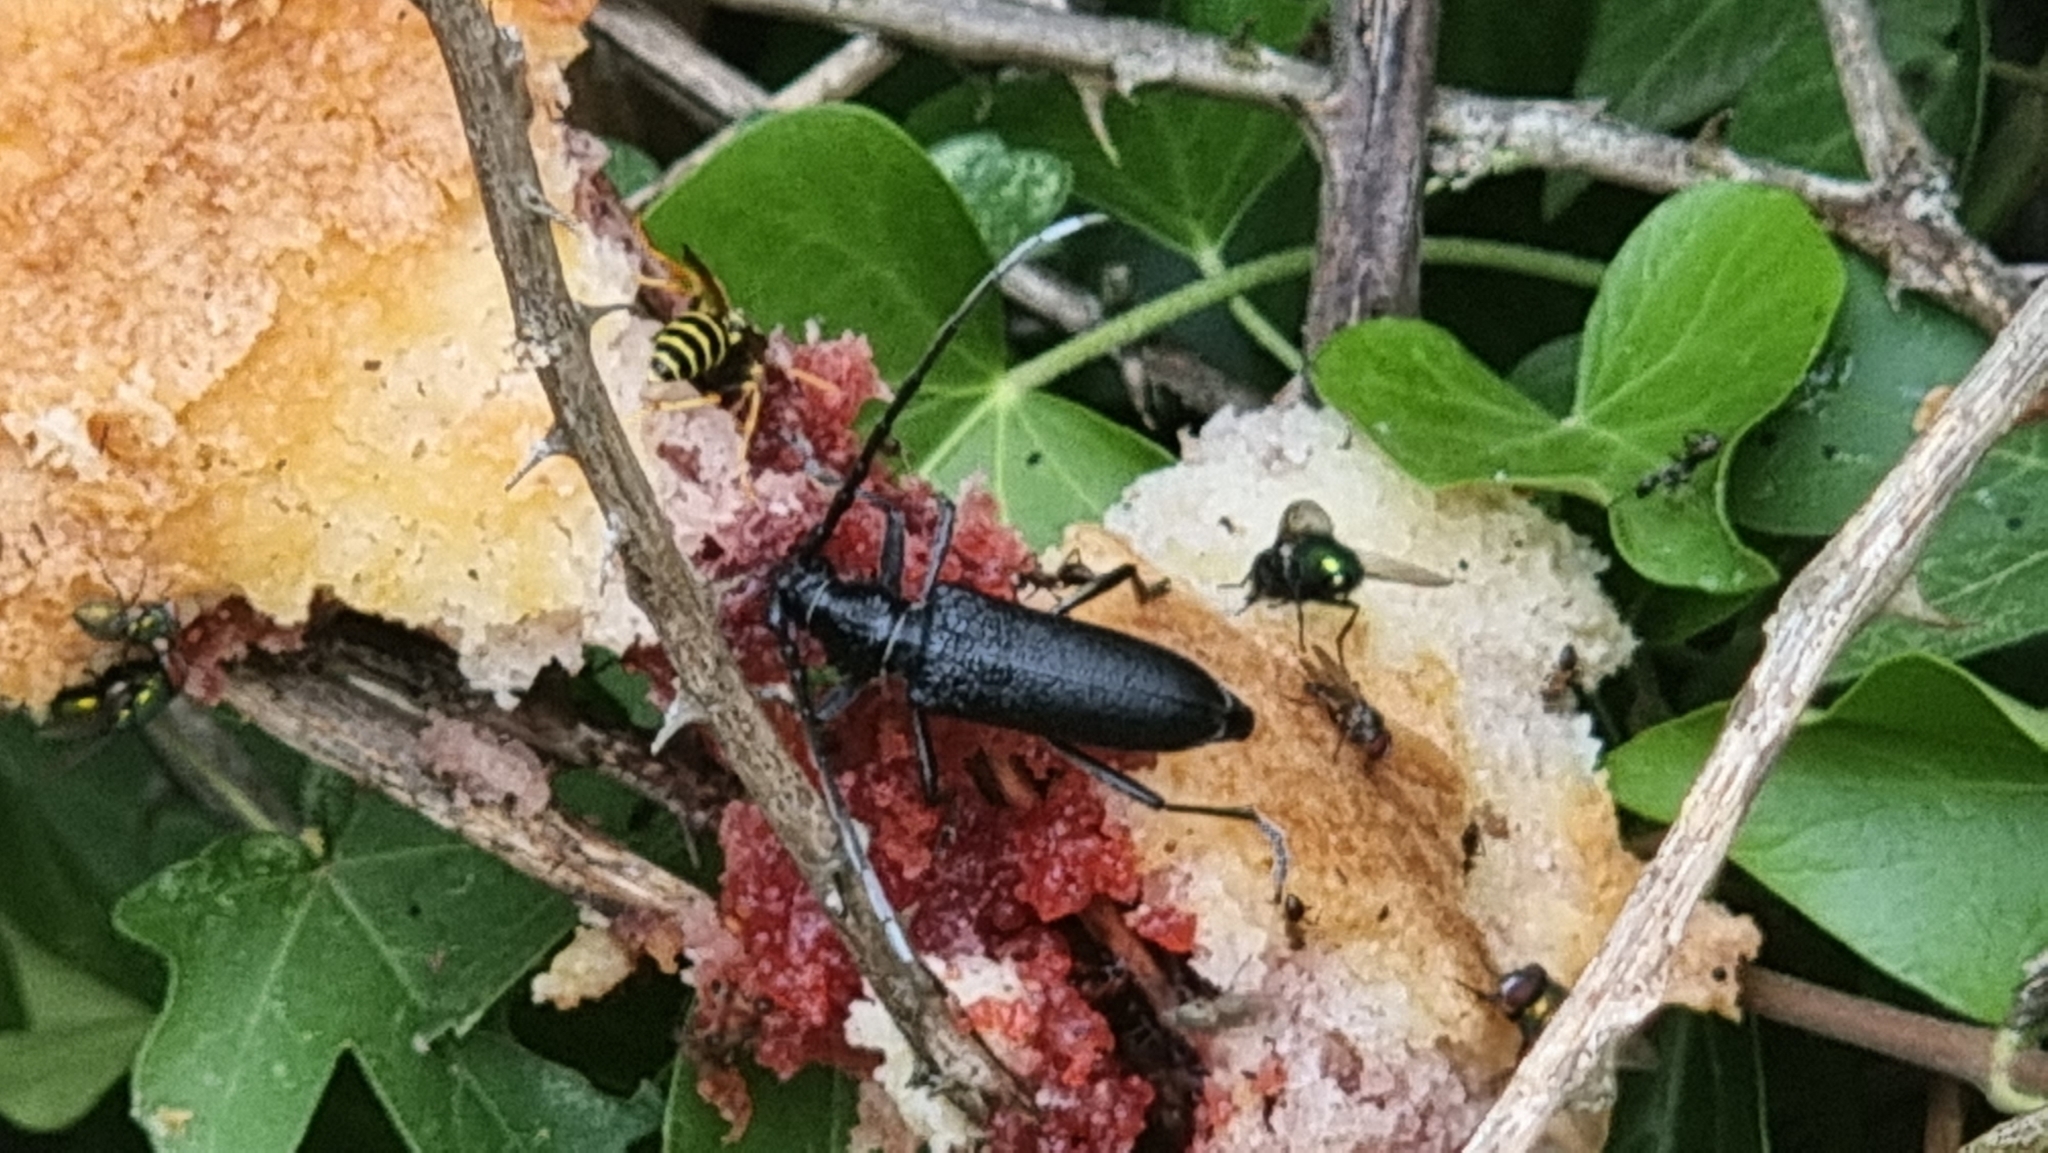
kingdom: Animalia
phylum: Arthropoda
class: Insecta
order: Coleoptera
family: Cerambycidae
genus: Cerambyx
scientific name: Cerambyx scopolii
